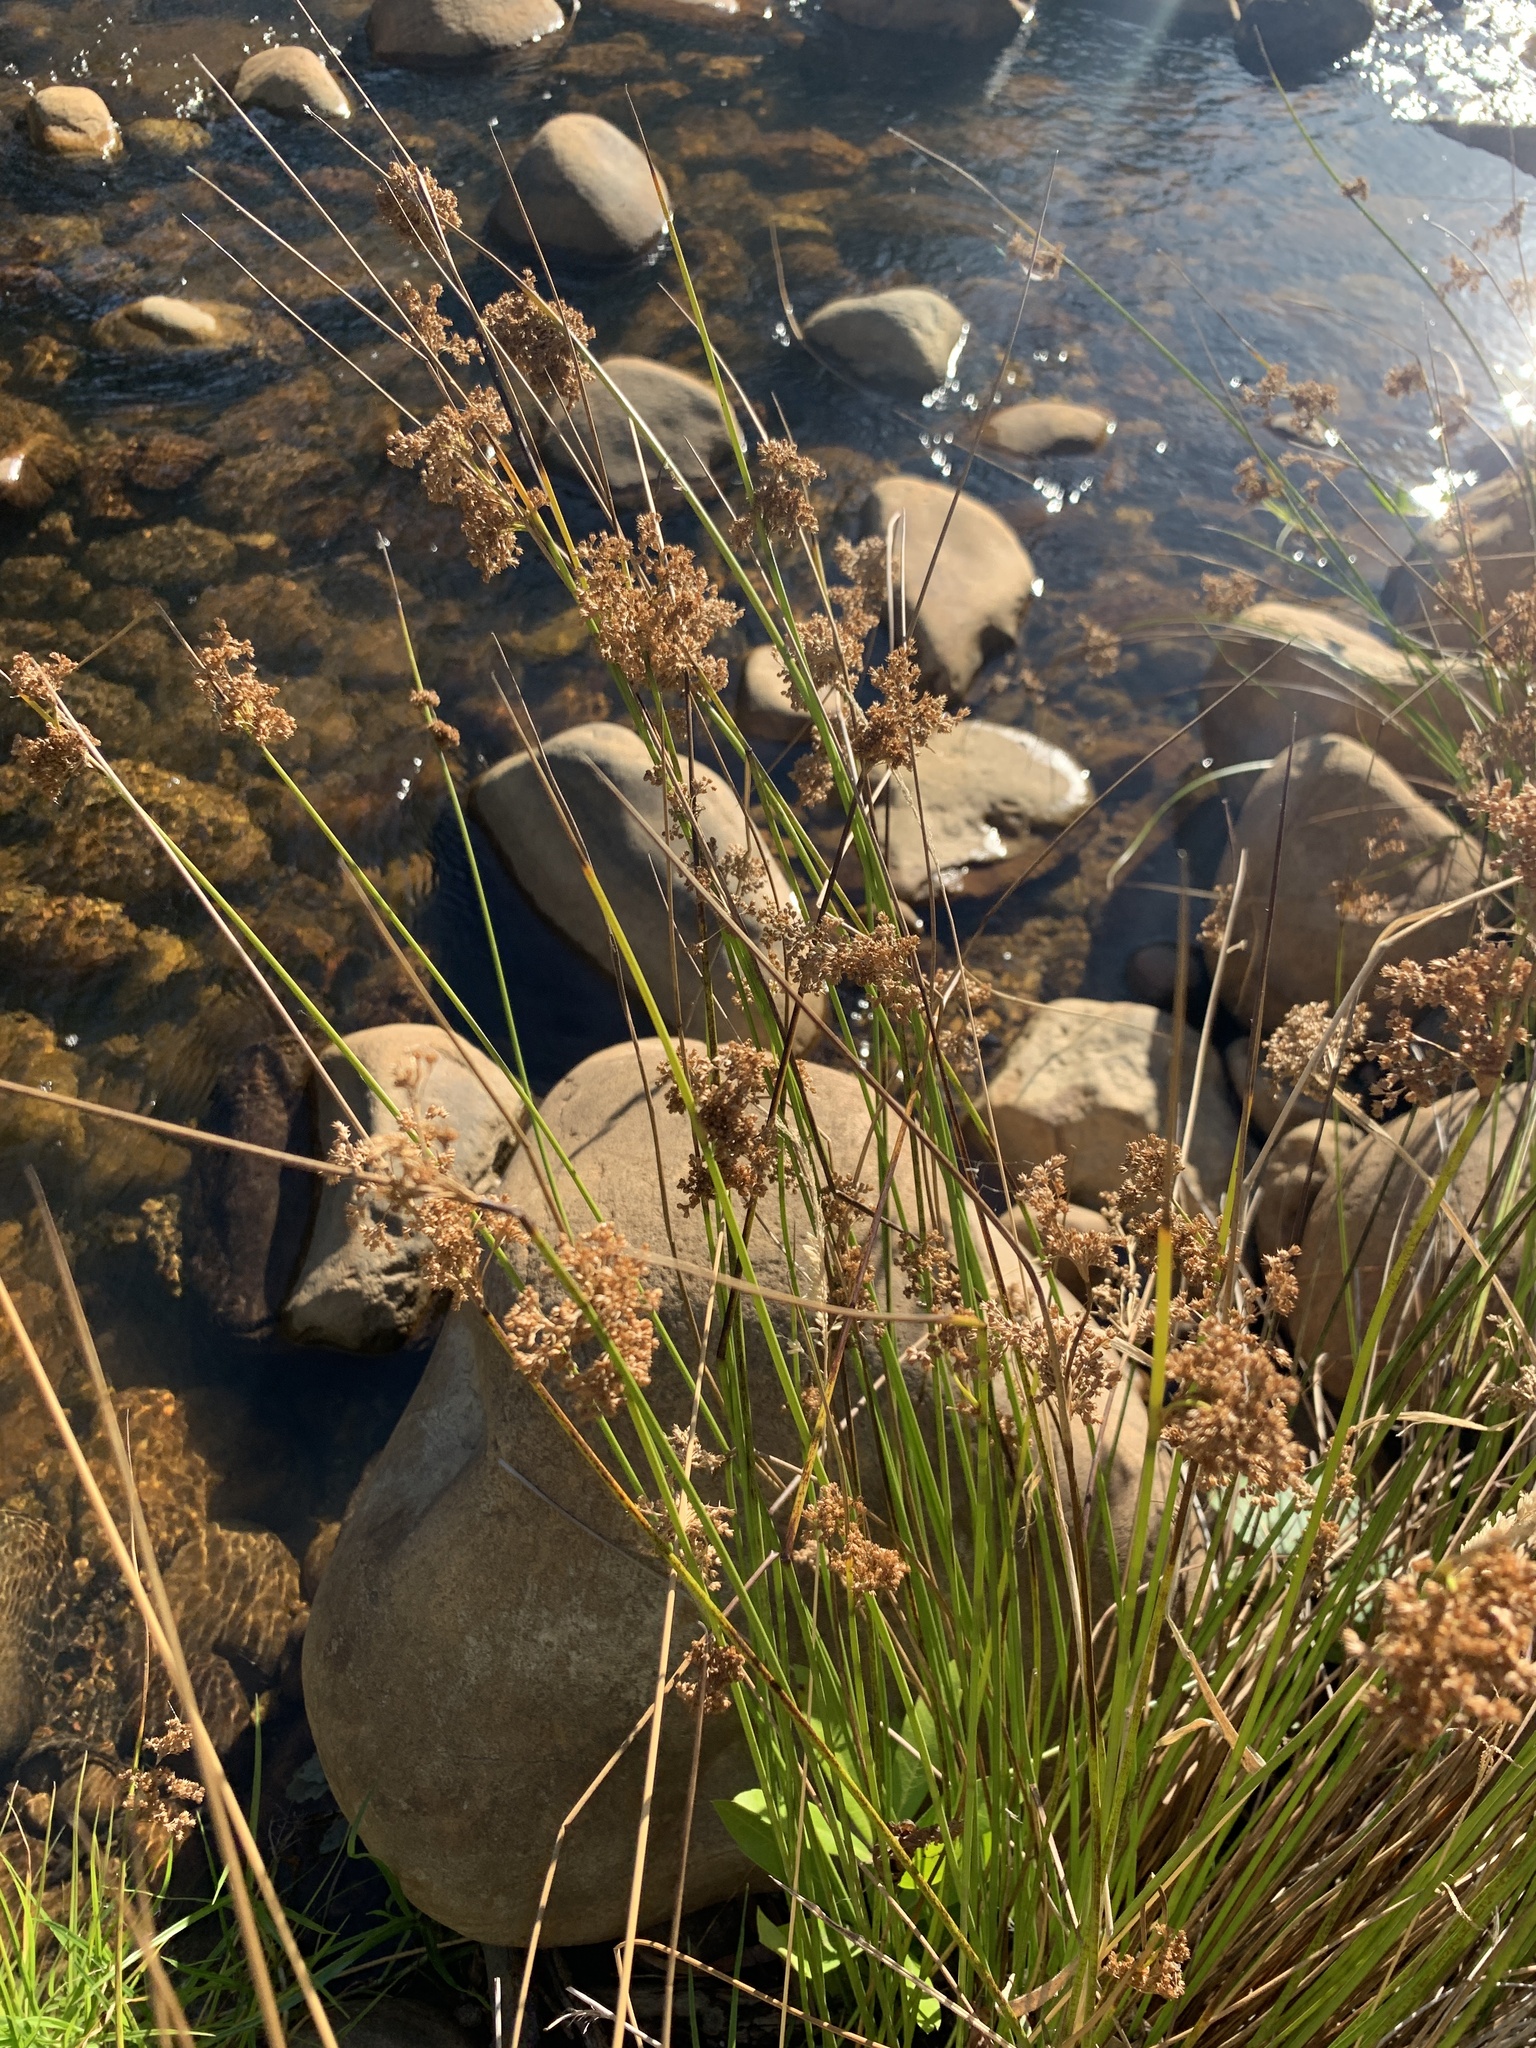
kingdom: Plantae
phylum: Tracheophyta
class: Liliopsida
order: Poales
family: Juncaceae
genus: Juncus
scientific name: Juncus effusus
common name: Soft rush
